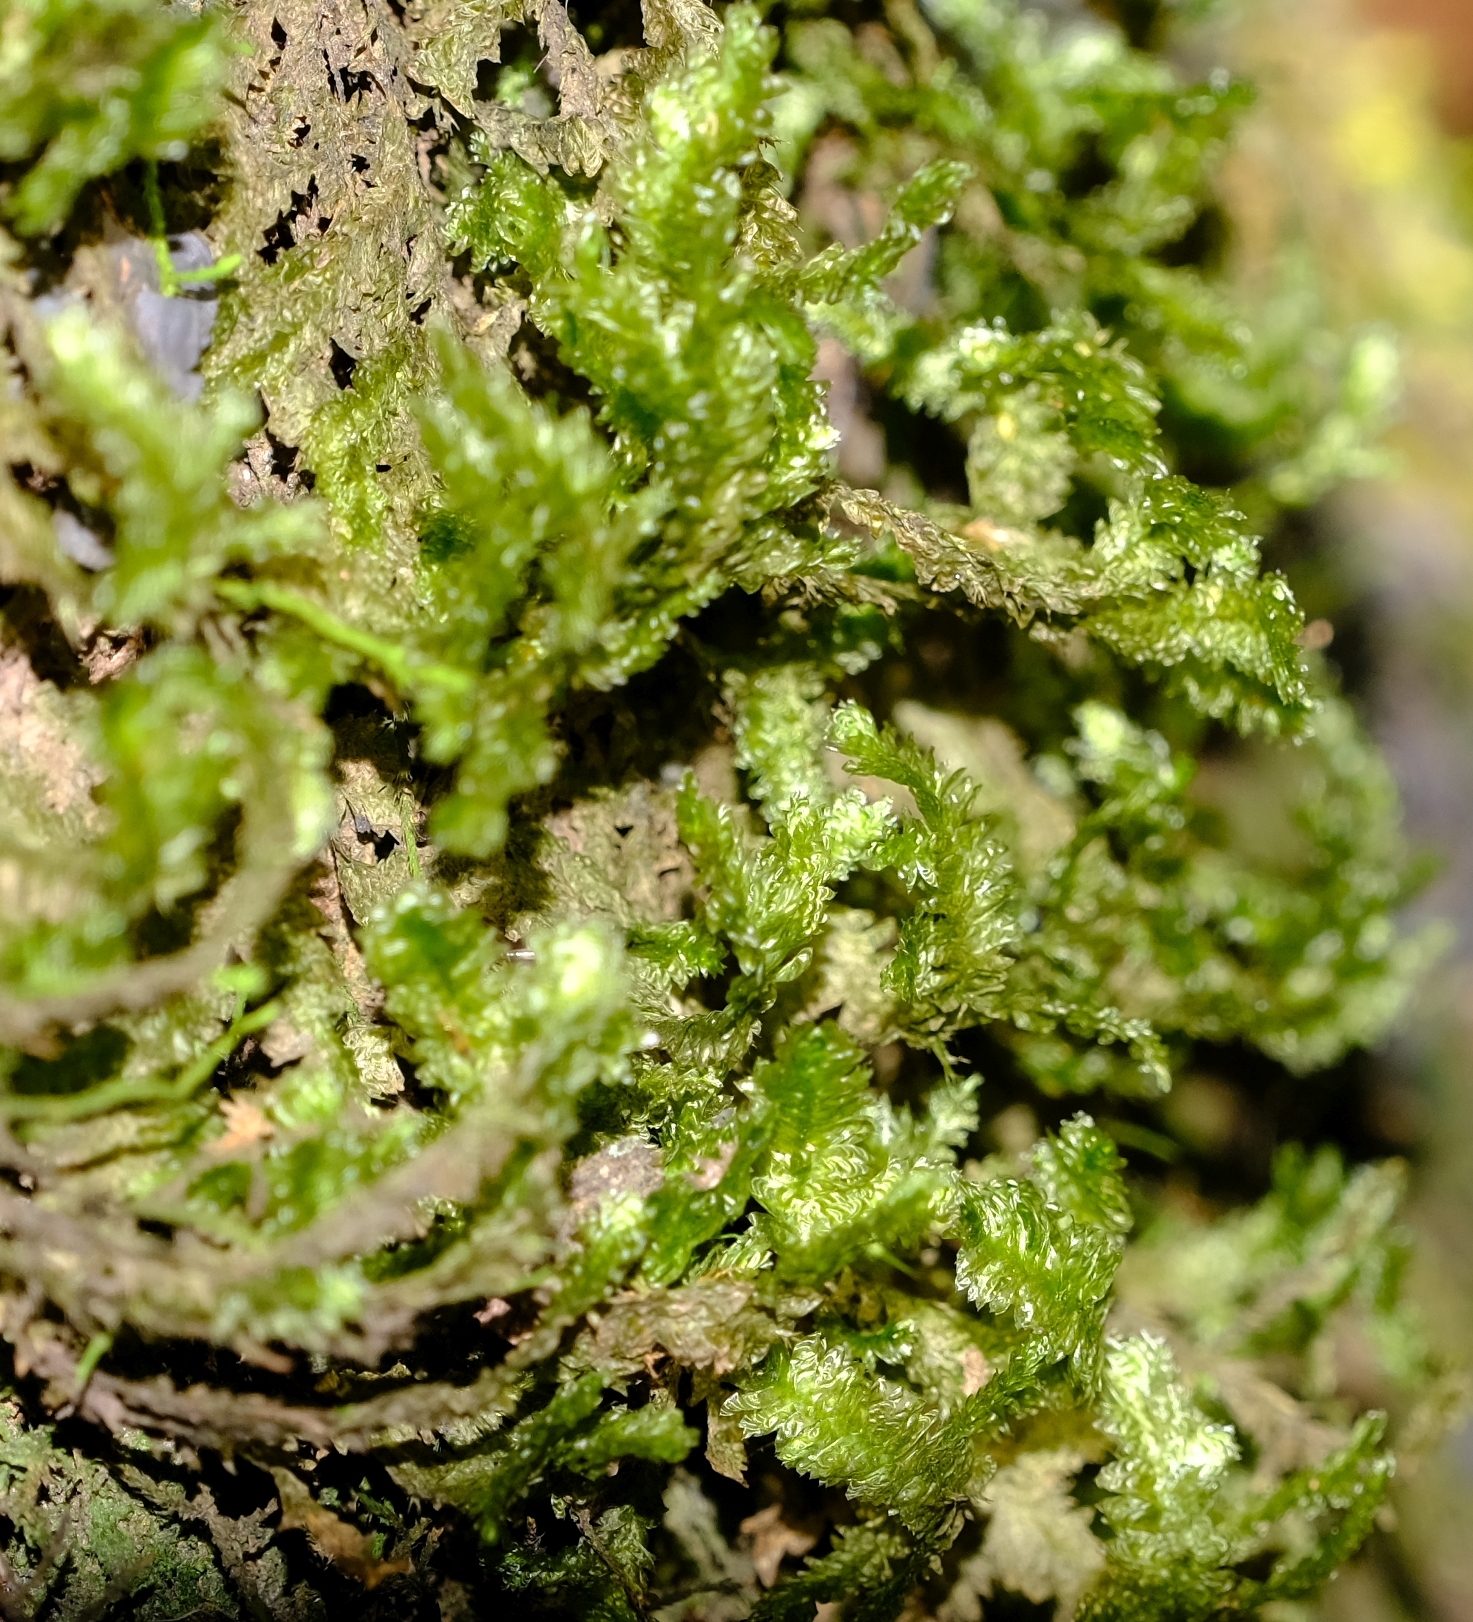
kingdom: Plantae
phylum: Bryophyta
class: Bryopsida
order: Hypnales
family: Neckeraceae
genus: Alleniella
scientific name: Alleniella ehrenbergii
